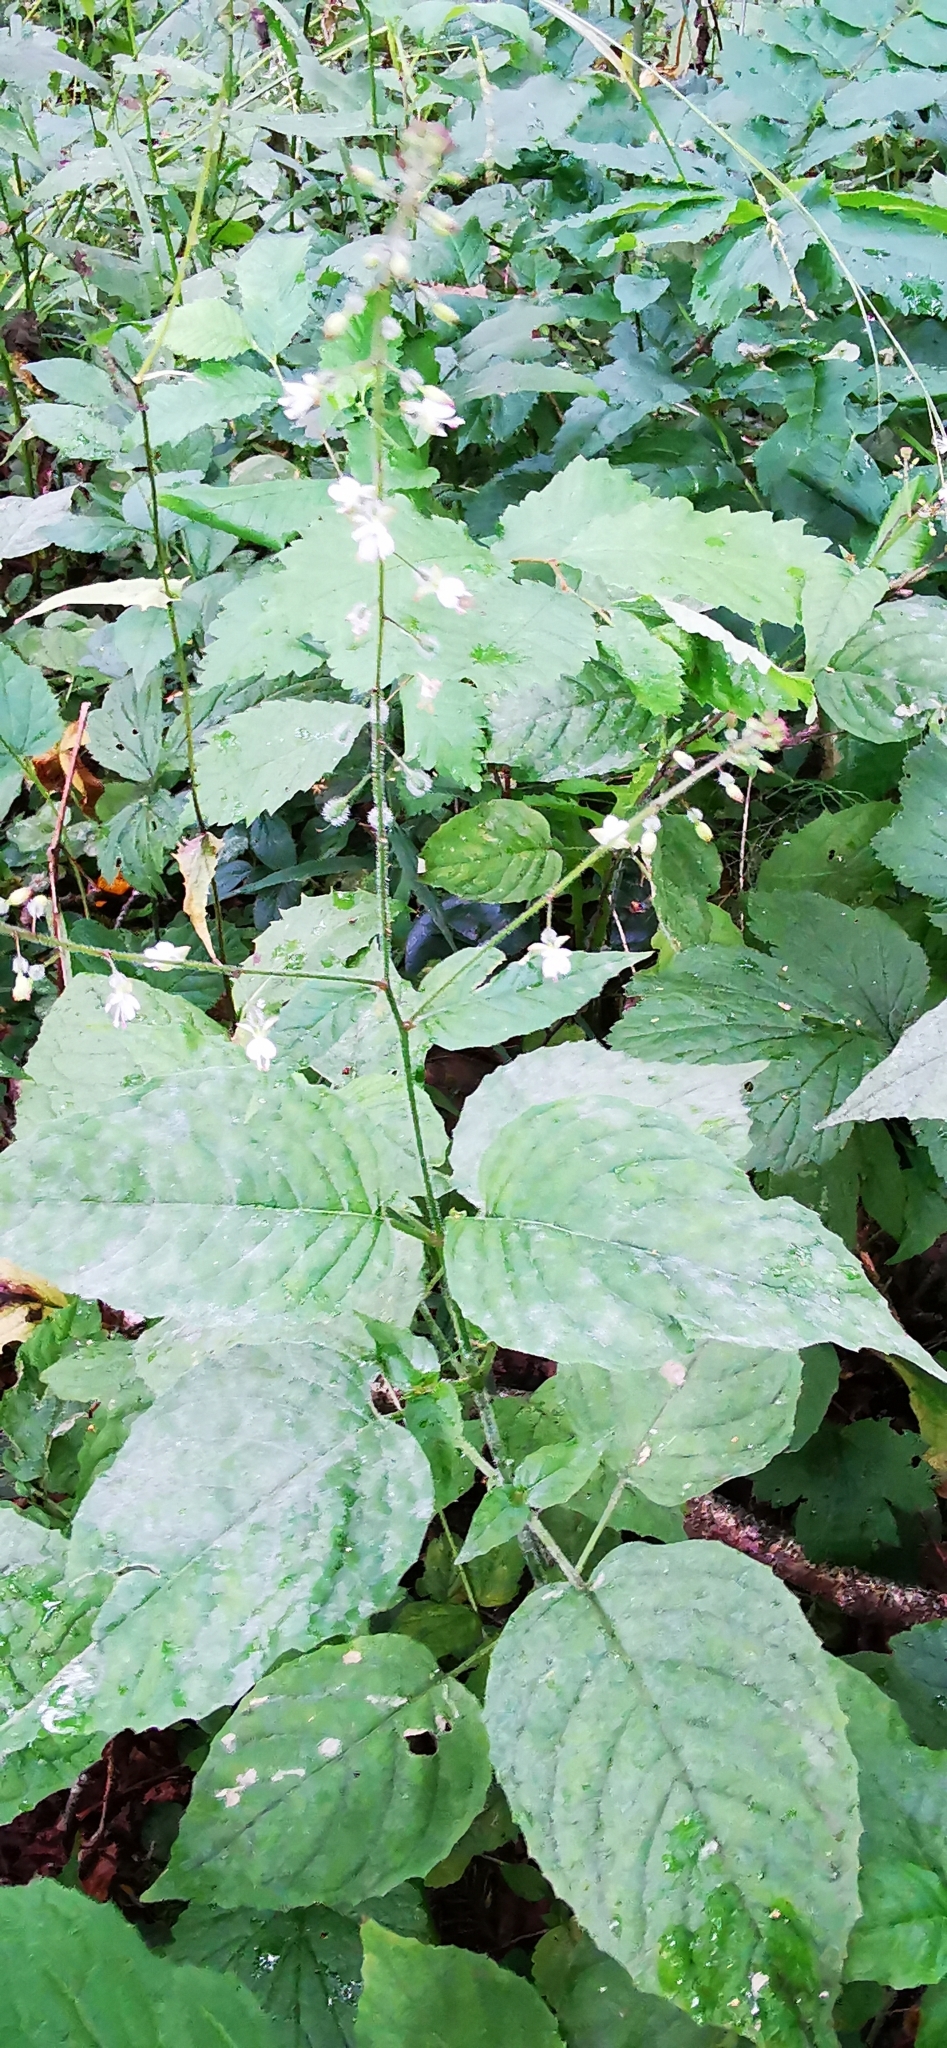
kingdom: Plantae
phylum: Tracheophyta
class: Magnoliopsida
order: Myrtales
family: Onagraceae
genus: Circaea
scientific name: Circaea lutetiana
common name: Enchanter's-nightshade
